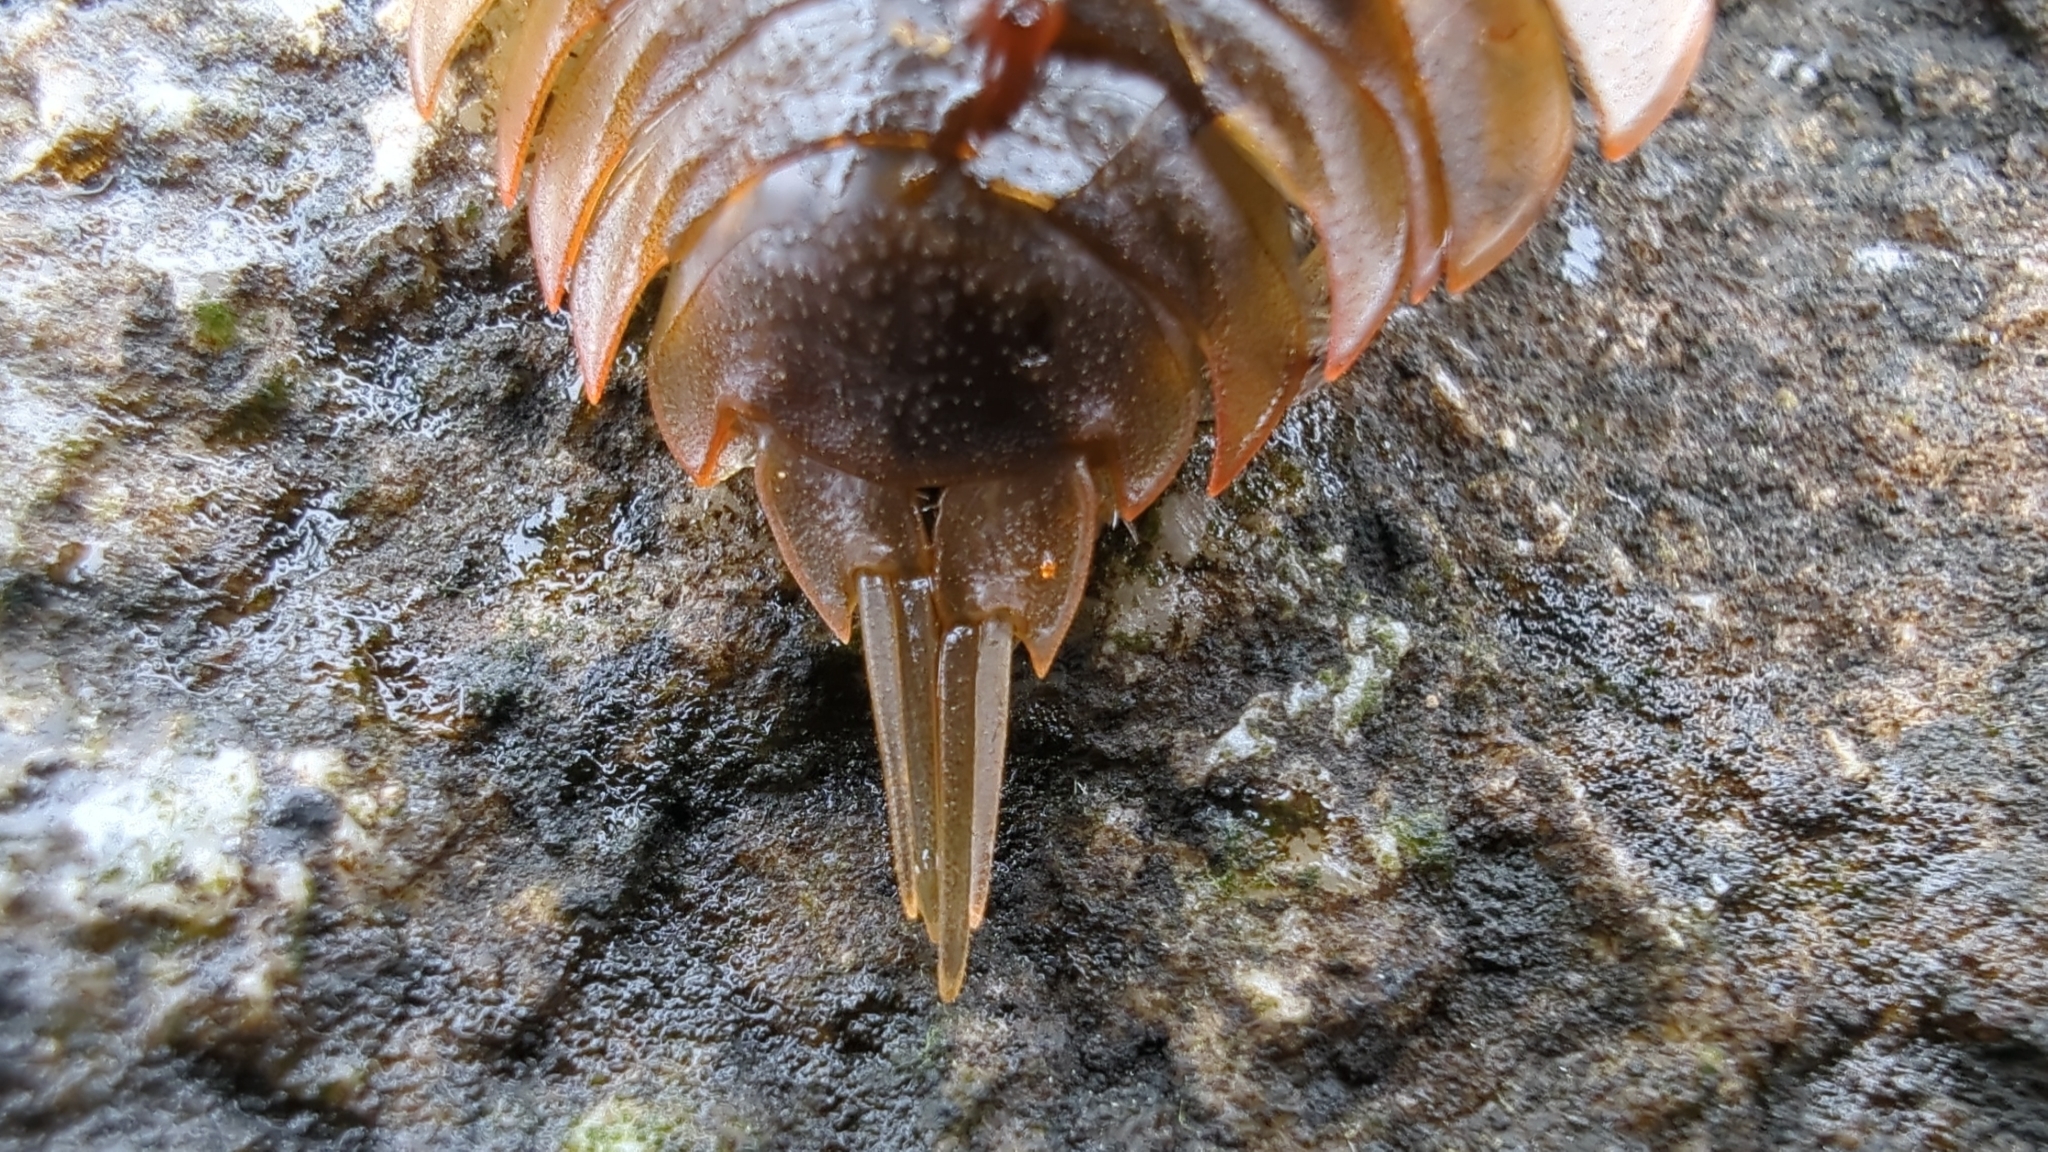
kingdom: Animalia
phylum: Arthropoda
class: Malacostraca
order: Isopoda
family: Ligiidae
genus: Ligia
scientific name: Ligia pallasii
